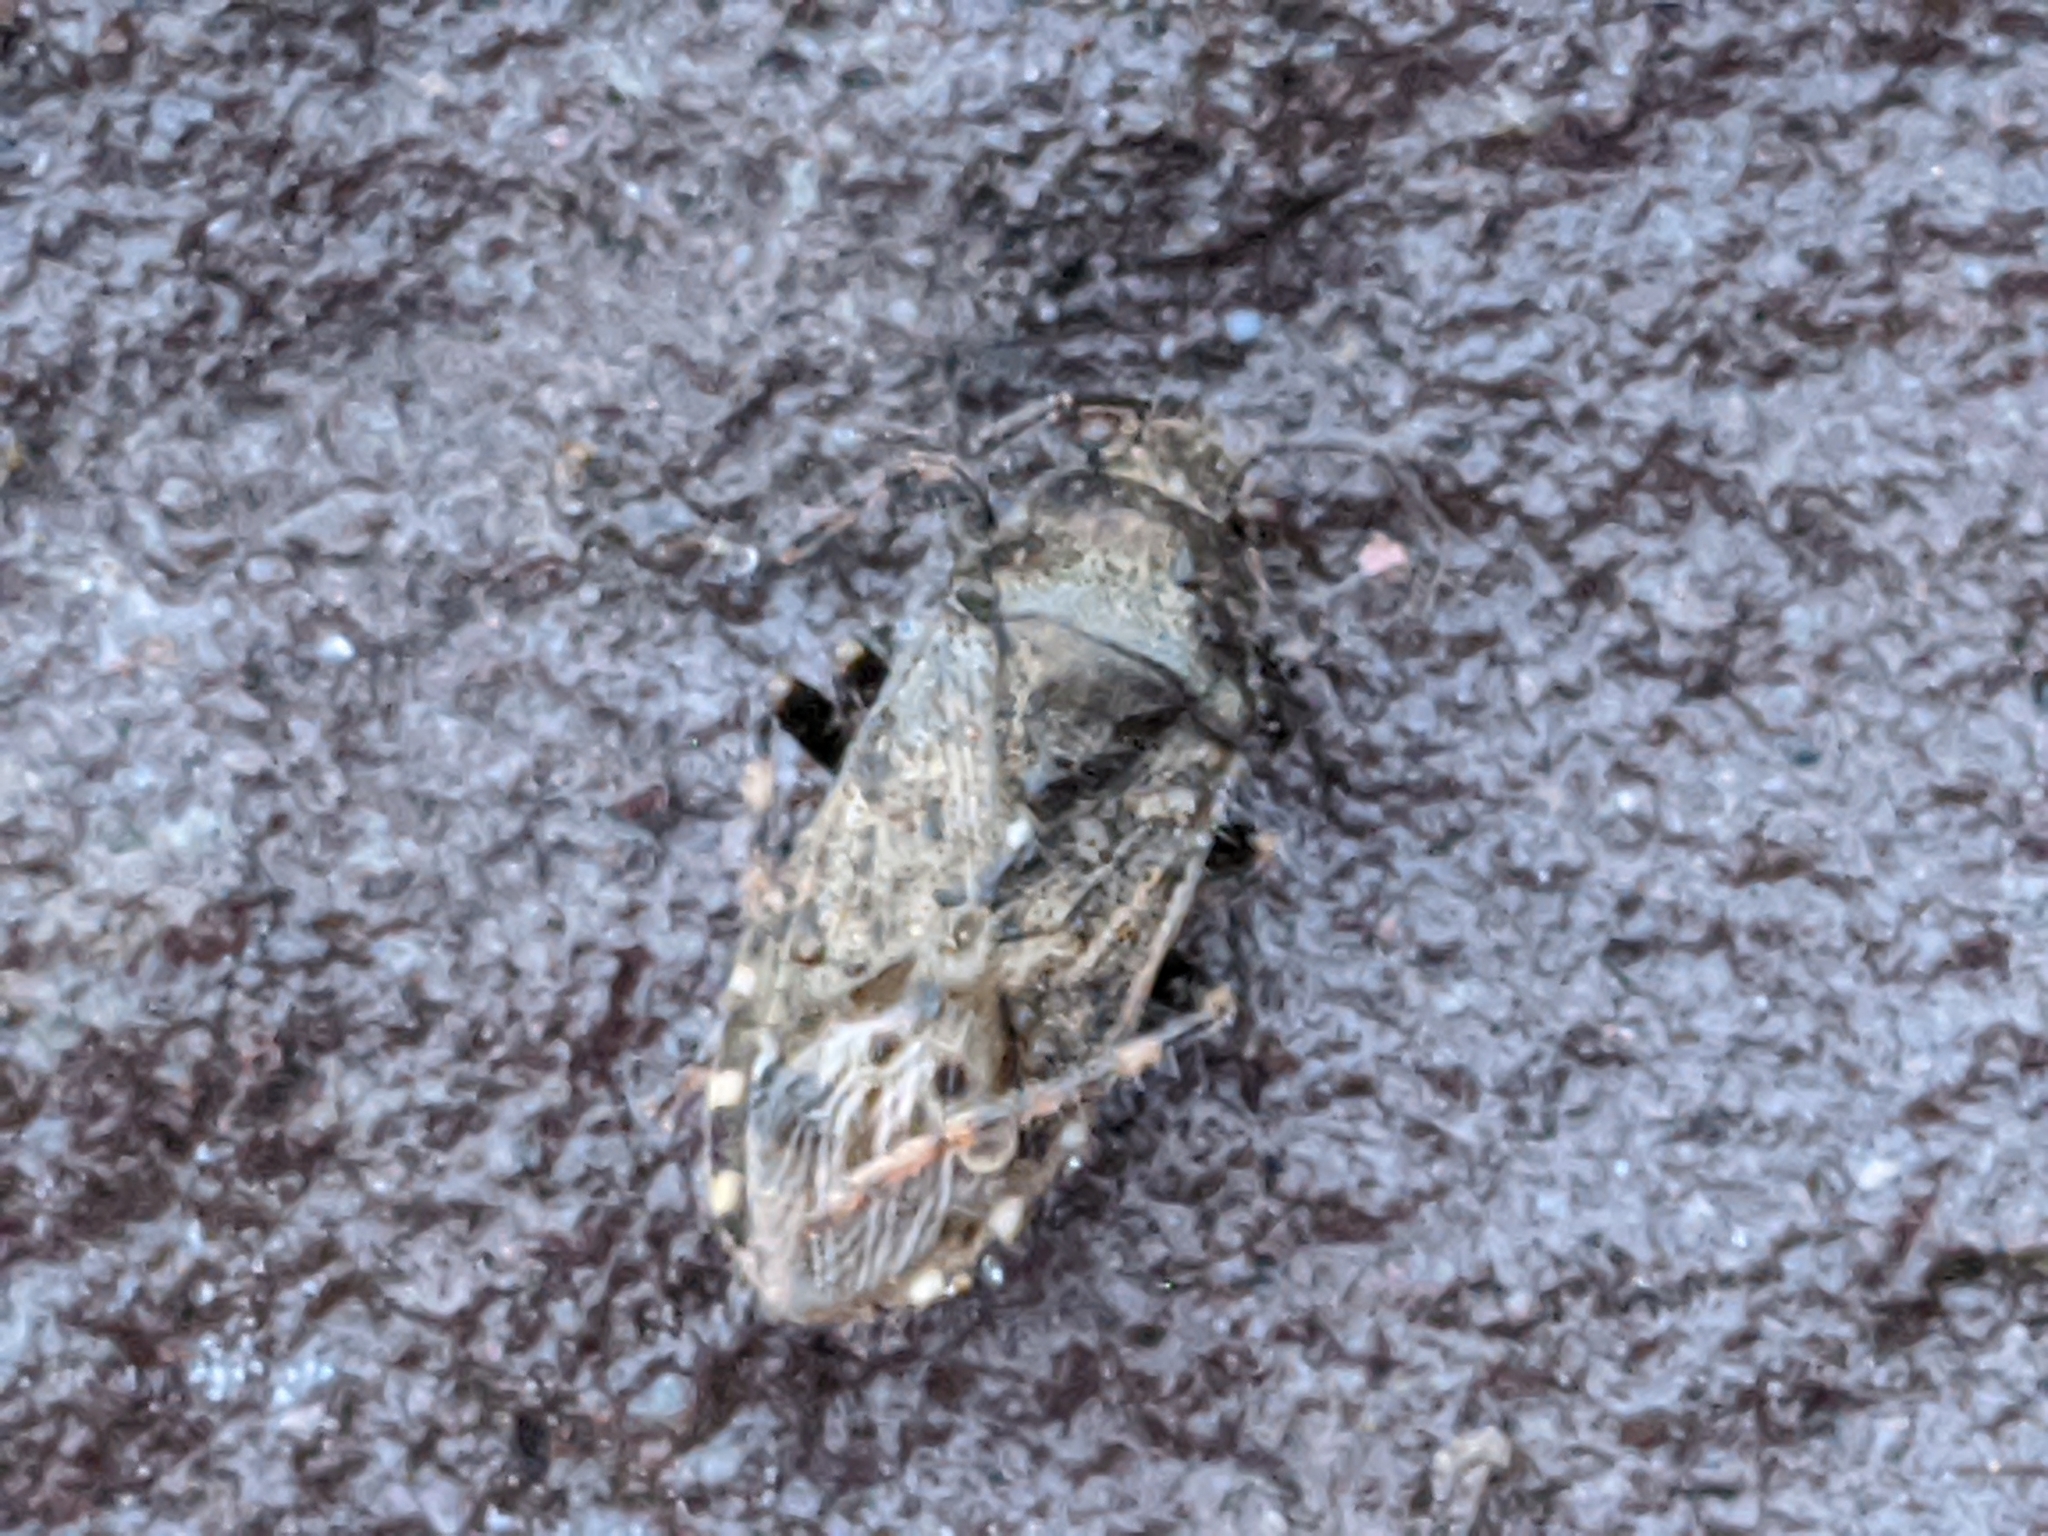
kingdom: Animalia
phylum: Arthropoda
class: Insecta
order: Hemiptera
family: Heterogastridae
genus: Heterogaster
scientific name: Heterogaster urticae
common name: Seed bug
